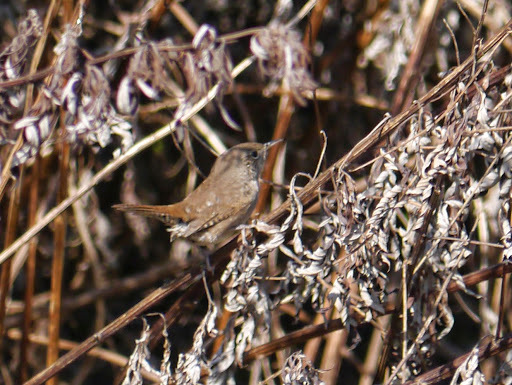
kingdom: Animalia
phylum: Chordata
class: Aves
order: Passeriformes
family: Troglodytidae
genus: Troglodytes
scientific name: Troglodytes aedon
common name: House wren
